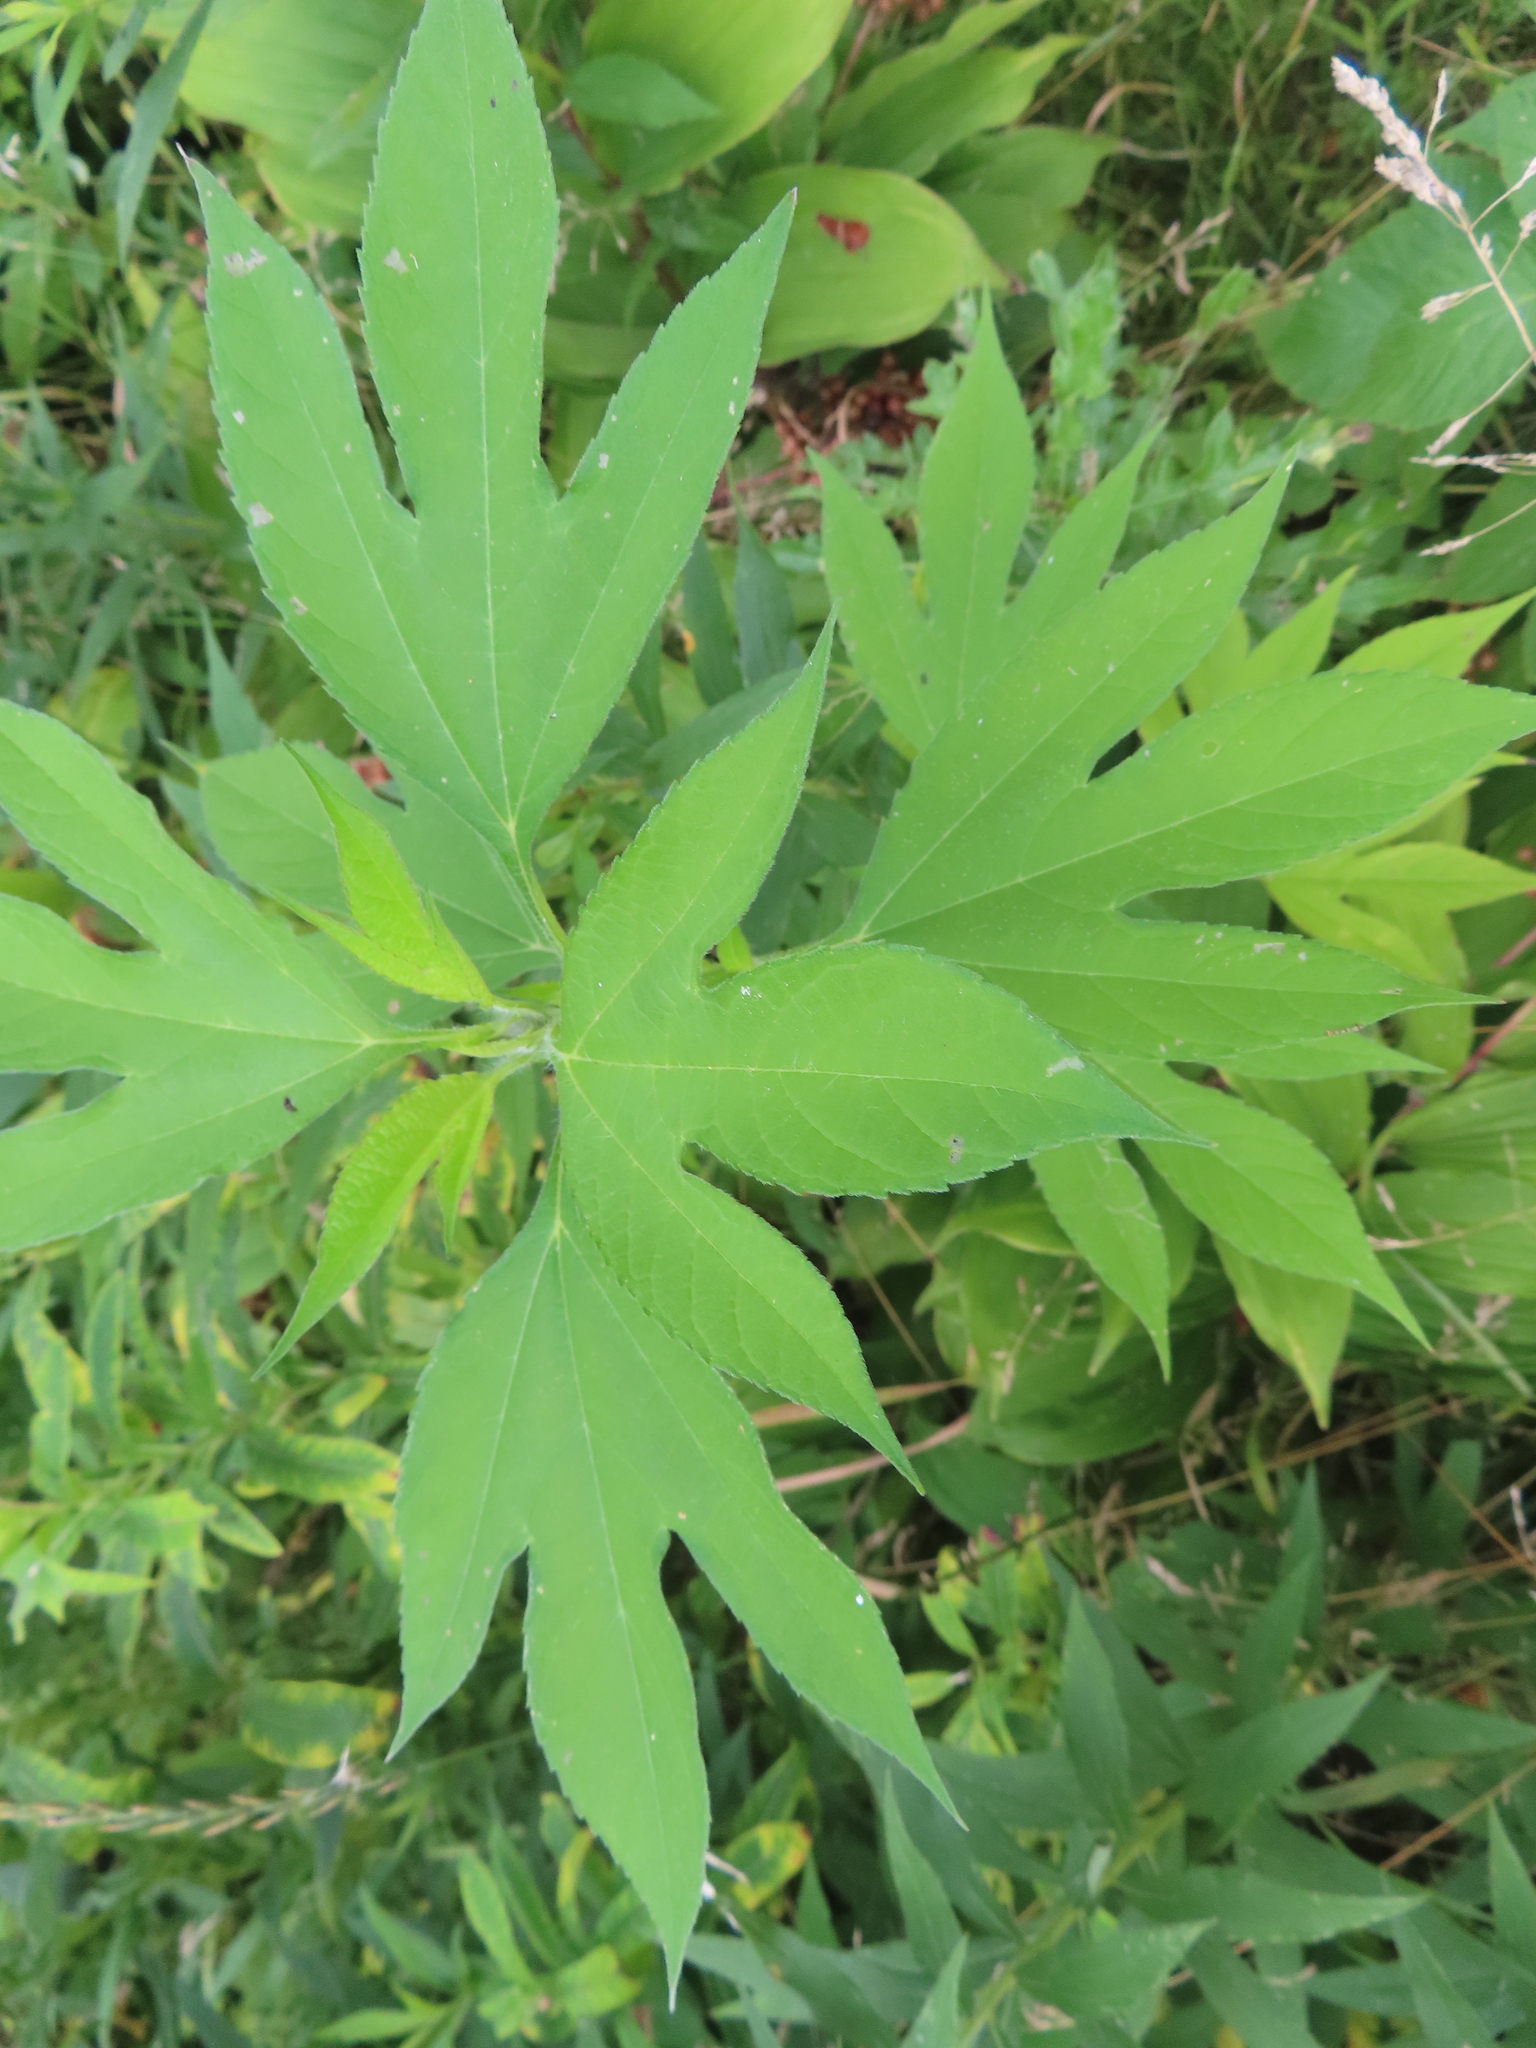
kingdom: Plantae
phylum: Tracheophyta
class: Magnoliopsida
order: Asterales
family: Asteraceae
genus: Ambrosia
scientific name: Ambrosia trifida
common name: Giant ragweed
